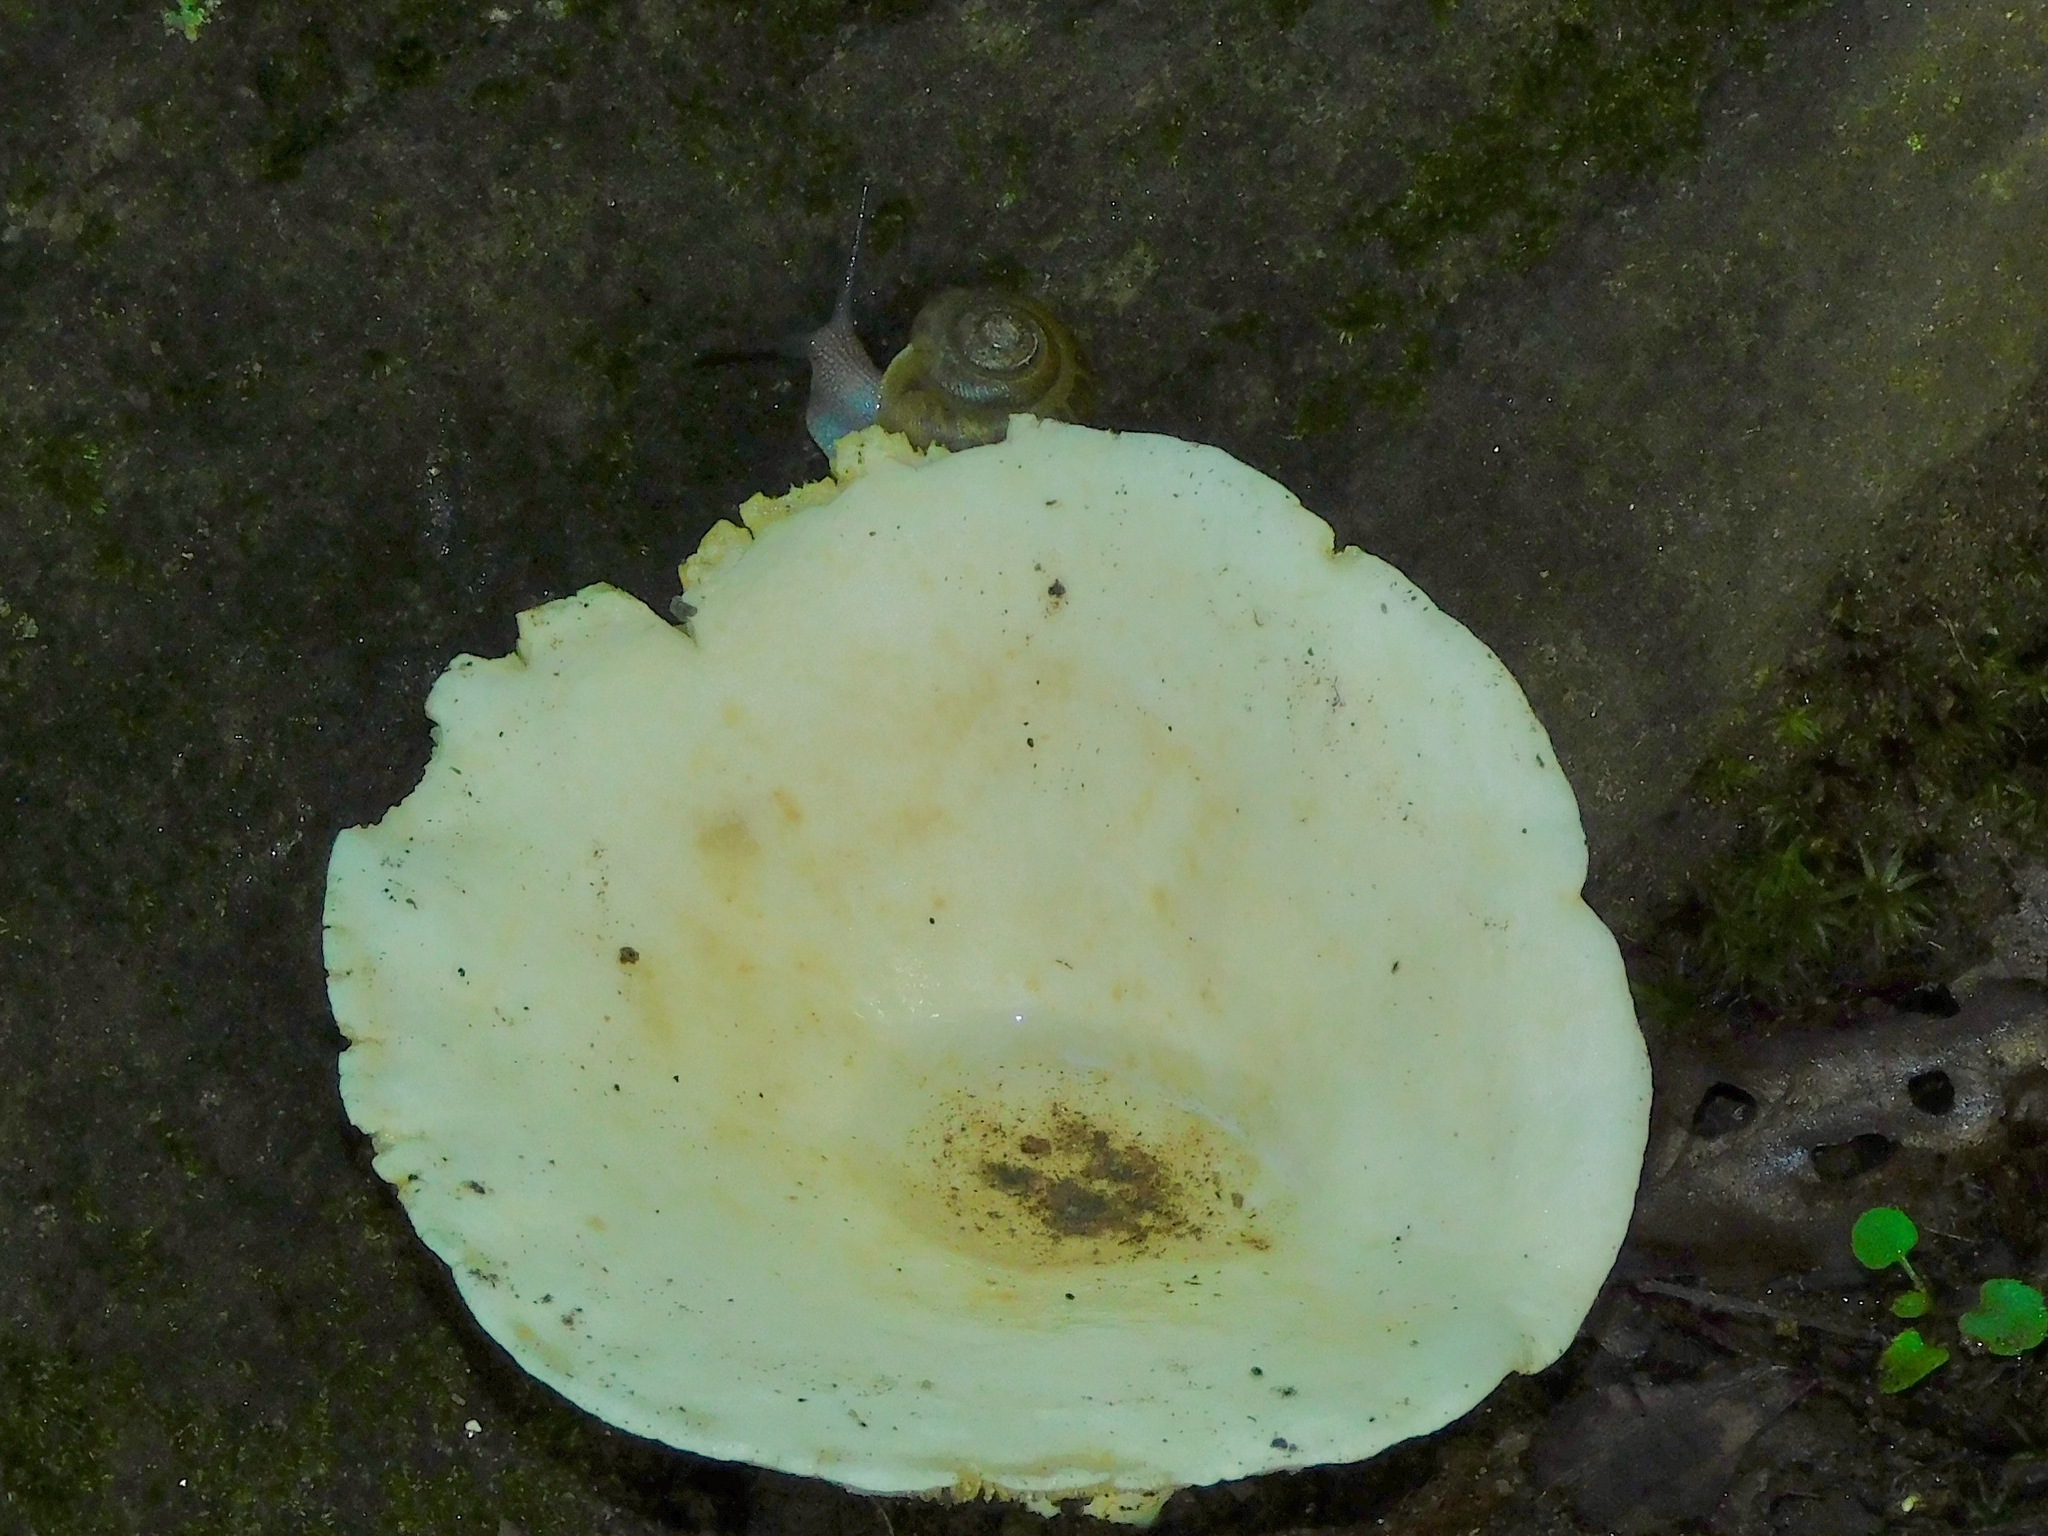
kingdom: Fungi
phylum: Basidiomycota
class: Agaricomycetes
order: Russulales
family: Russulaceae
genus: Lactarius
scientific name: Lactarius maculatipes
